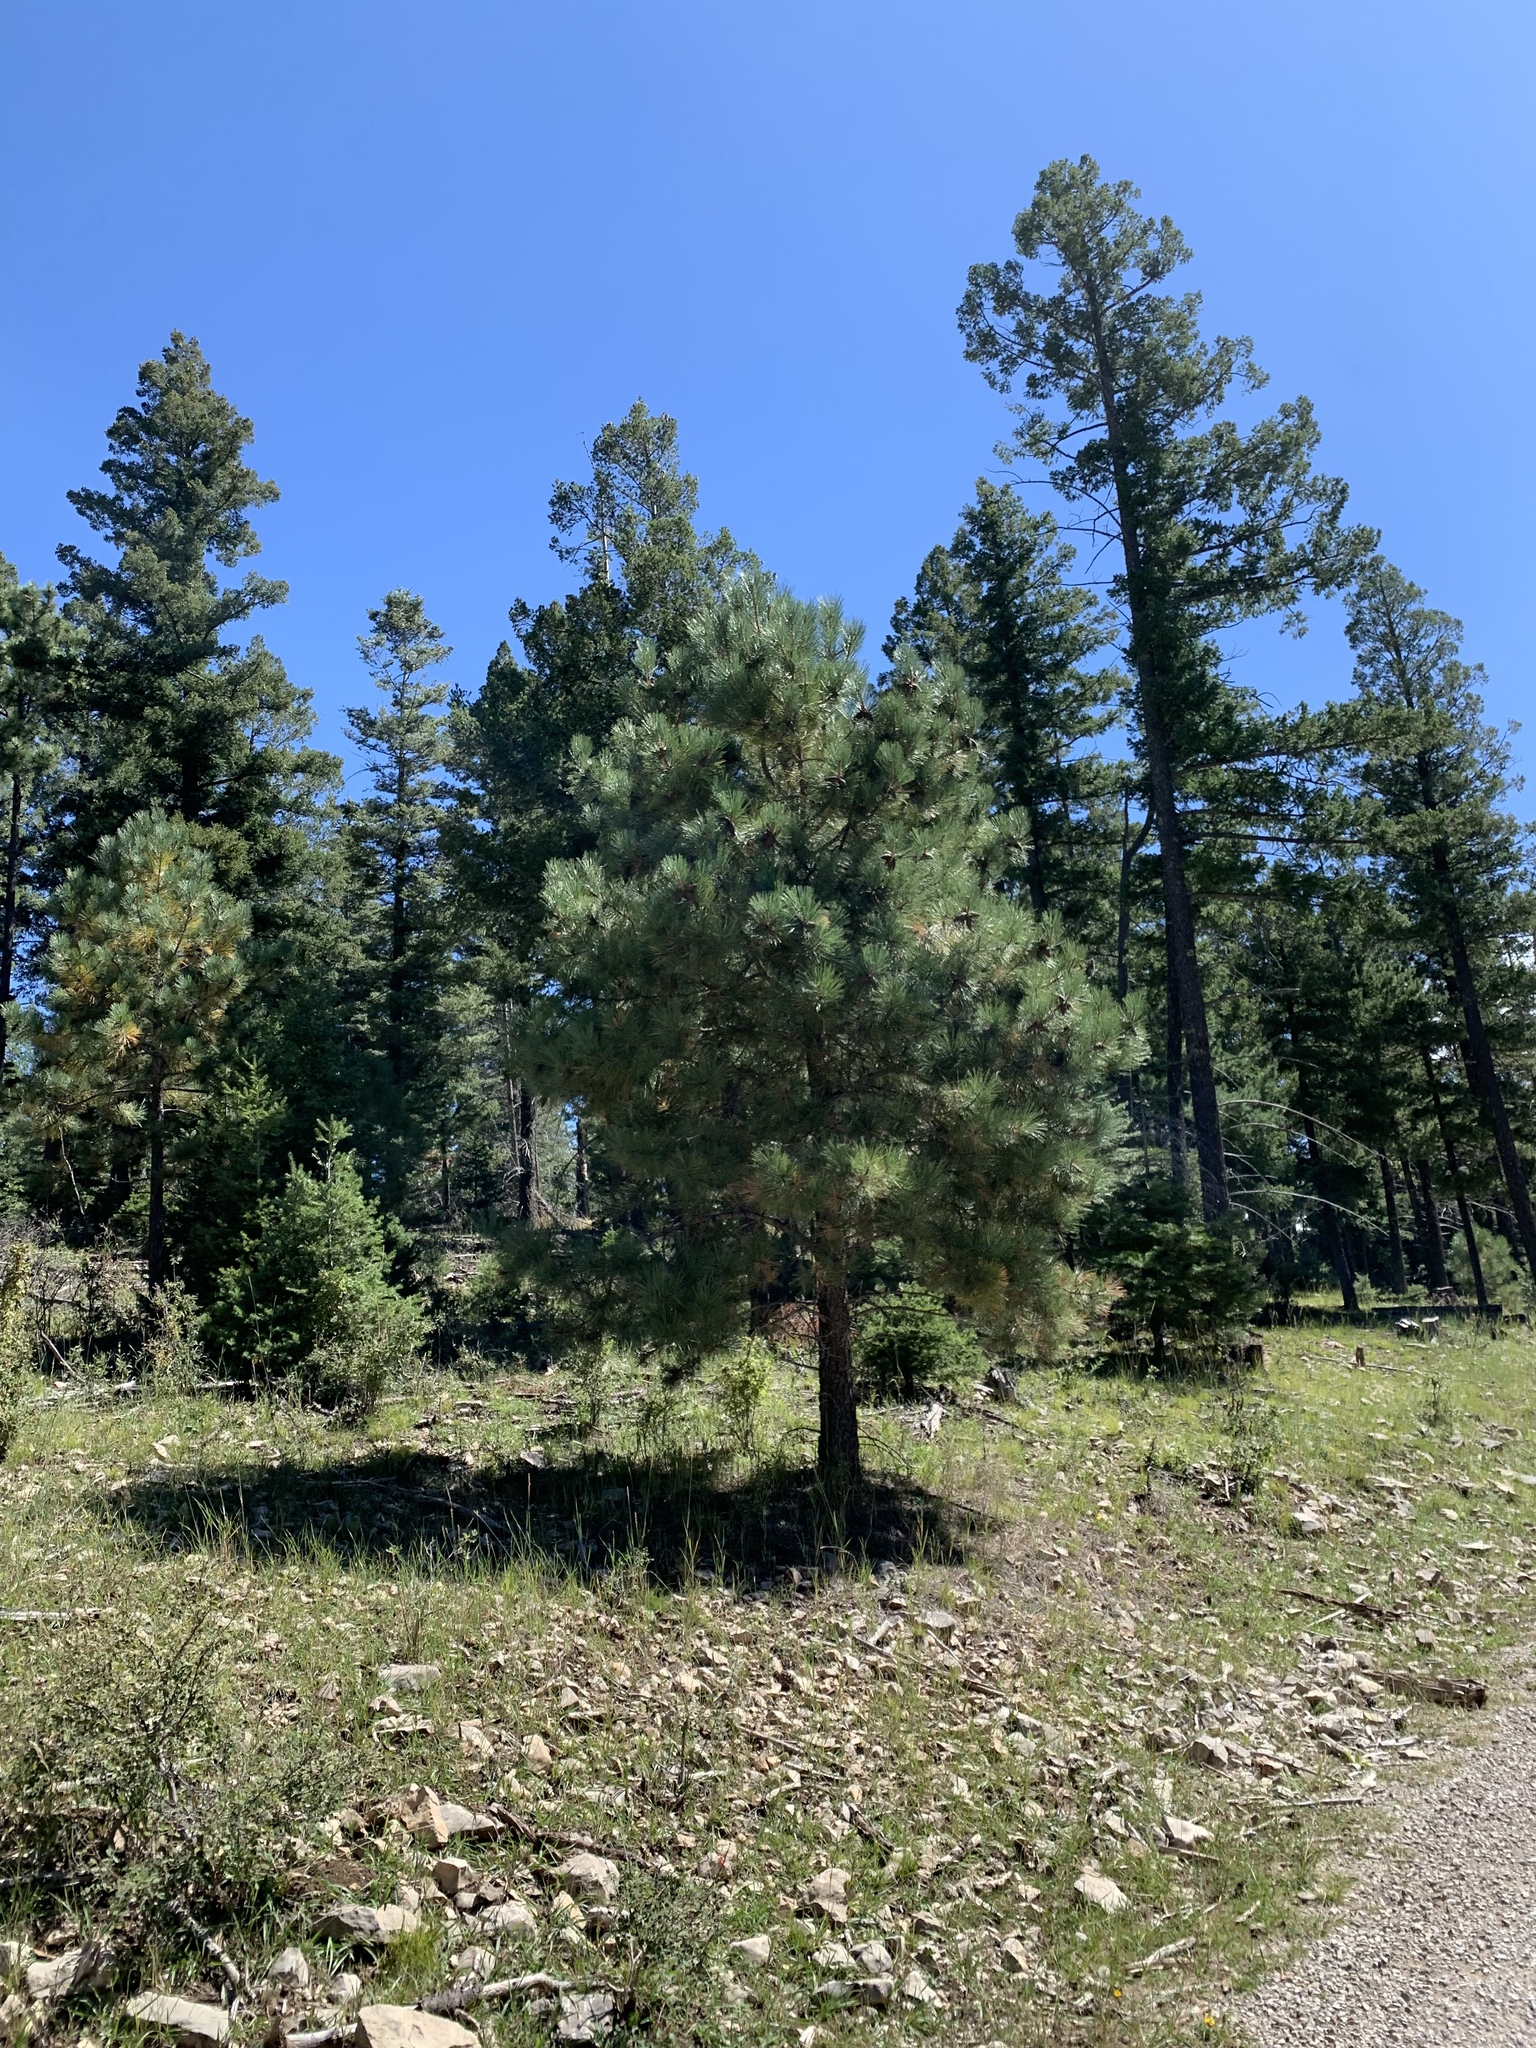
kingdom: Plantae
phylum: Tracheophyta
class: Pinopsida
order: Pinales
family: Pinaceae
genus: Pinus
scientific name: Pinus ponderosa
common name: Western yellow-pine
